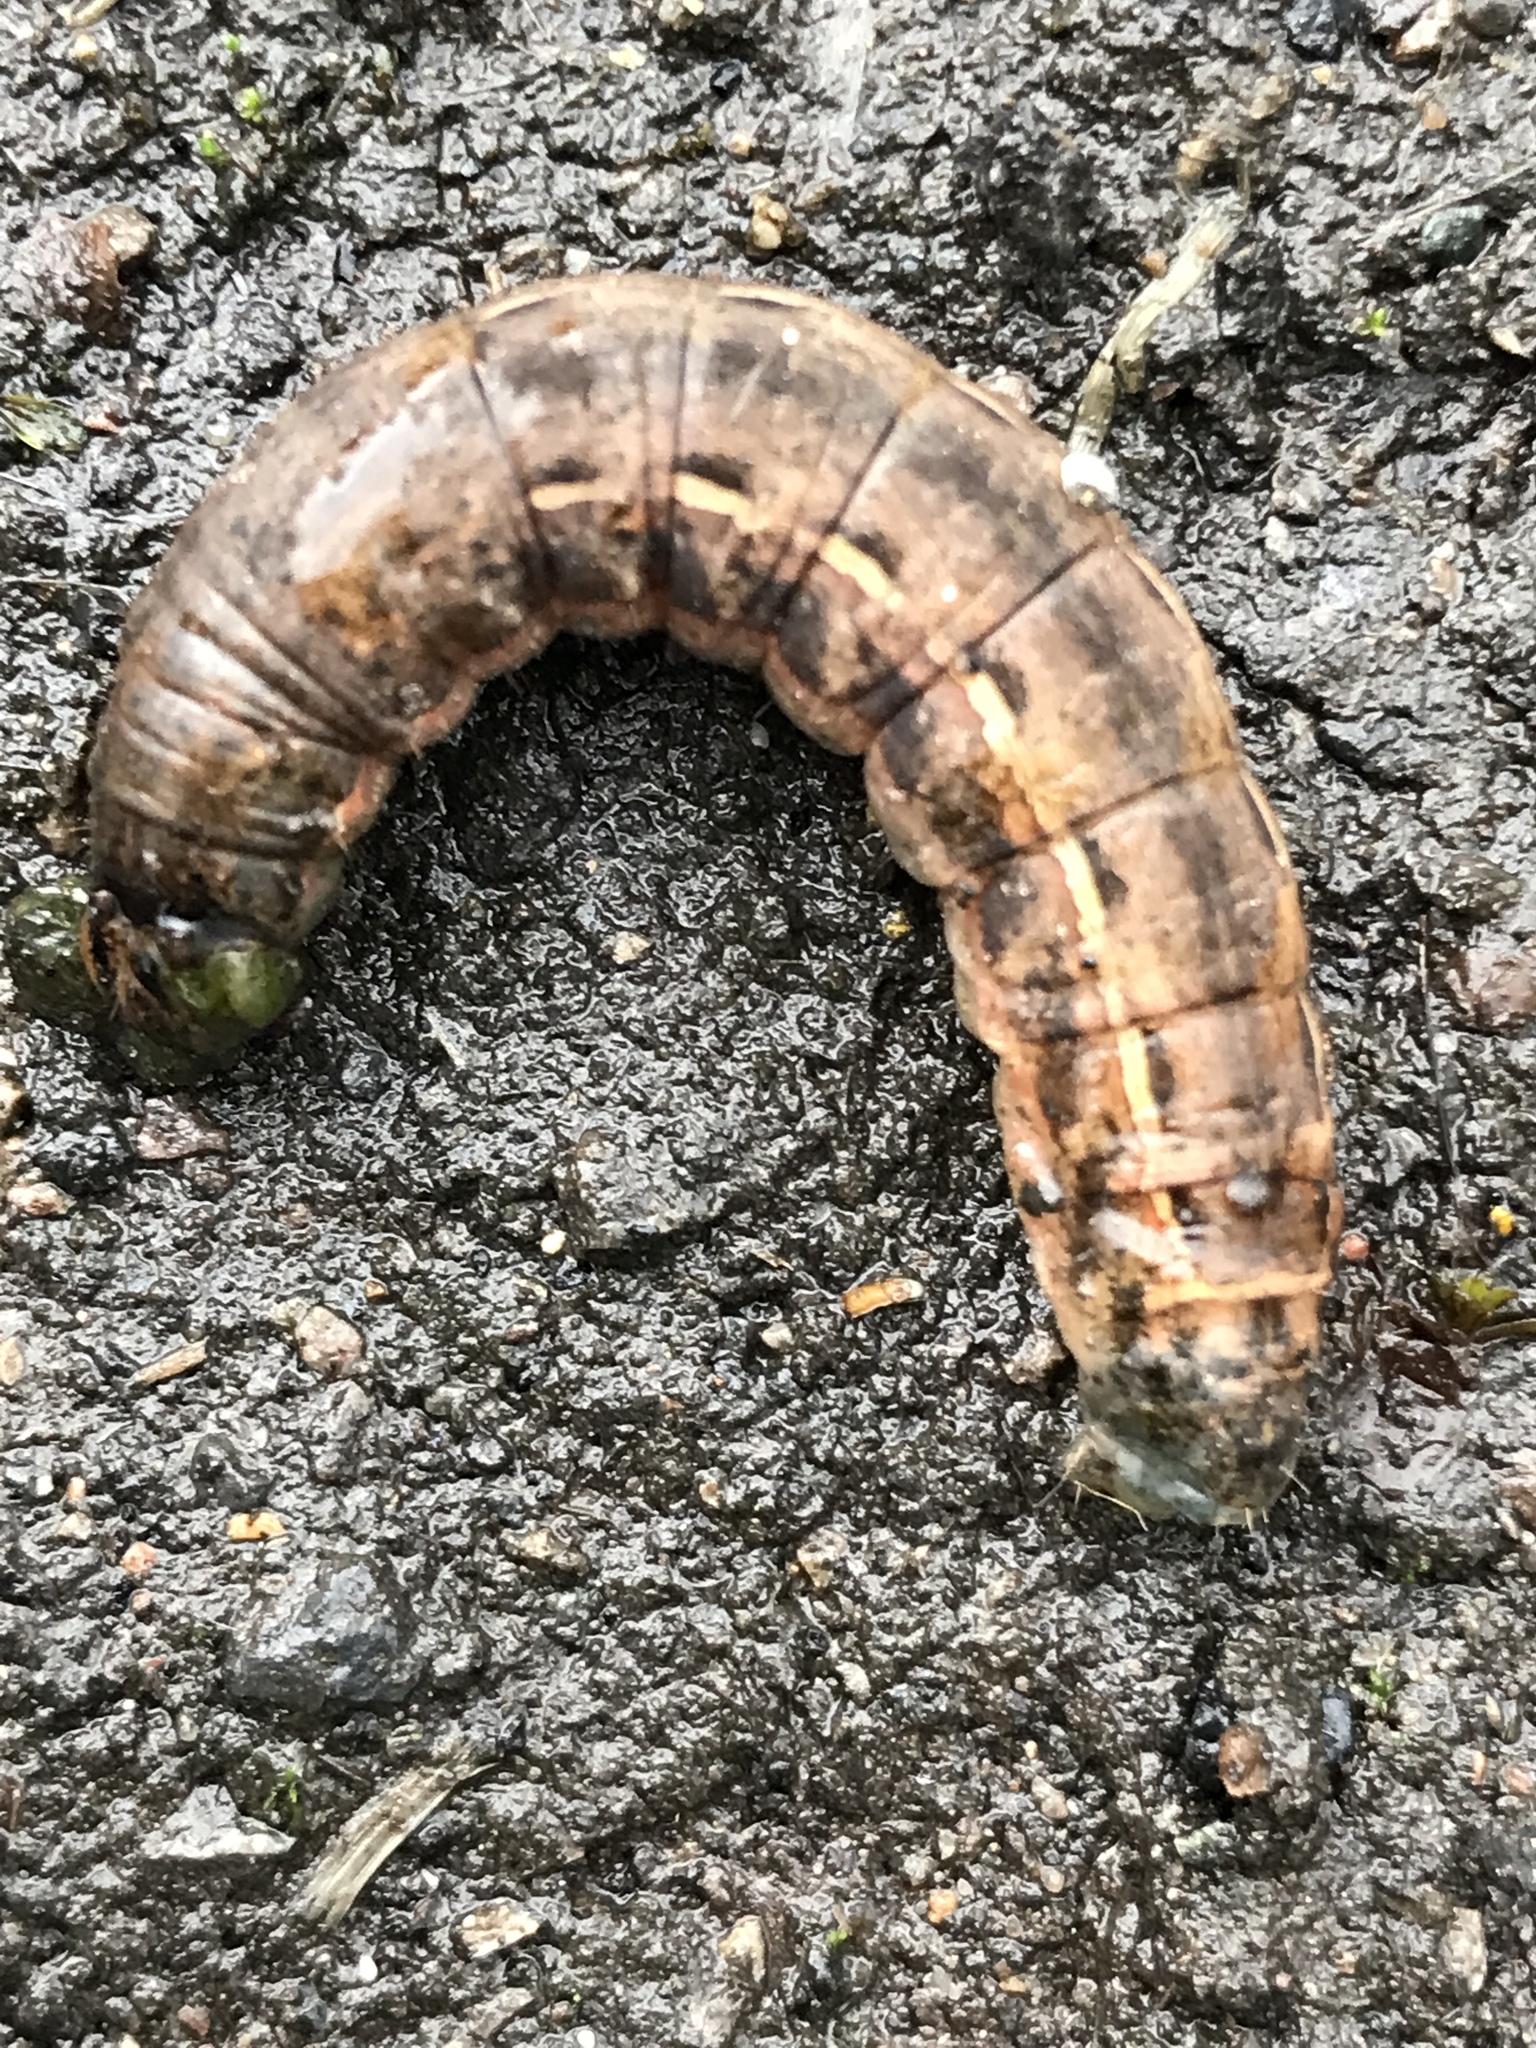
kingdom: Animalia
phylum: Arthropoda
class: Insecta
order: Lepidoptera
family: Noctuidae
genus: Noctua
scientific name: Noctua pronuba
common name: Large yellow underwing
